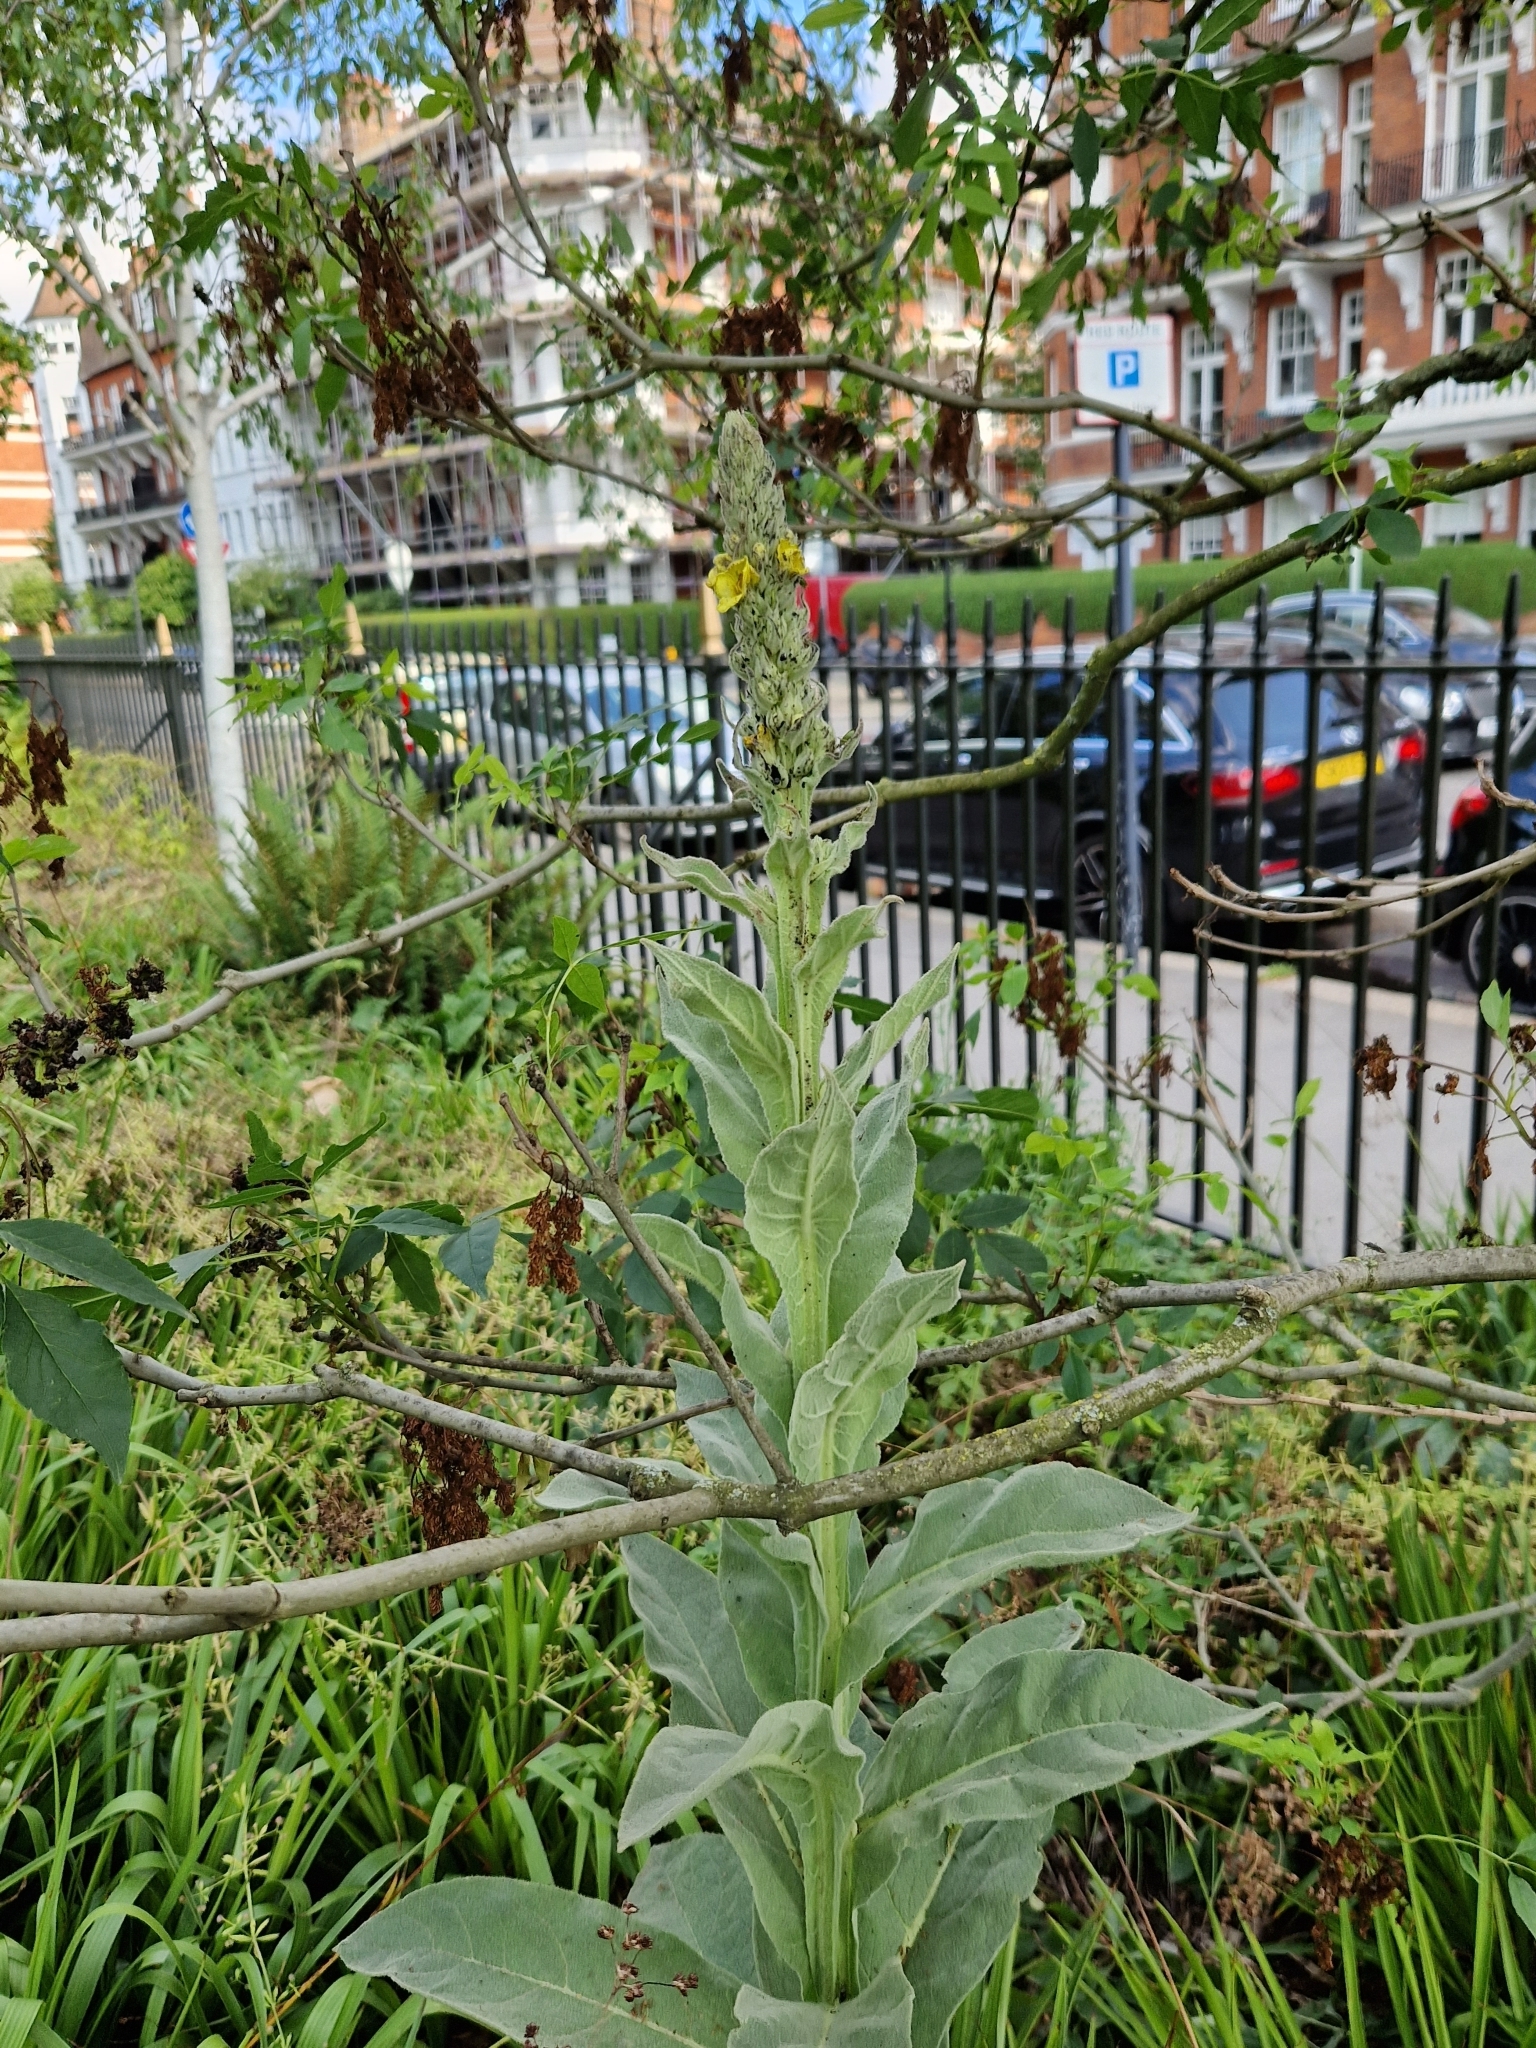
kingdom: Plantae
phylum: Tracheophyta
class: Magnoliopsida
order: Lamiales
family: Scrophulariaceae
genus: Verbascum
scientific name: Verbascum thapsus
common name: Common mullein
